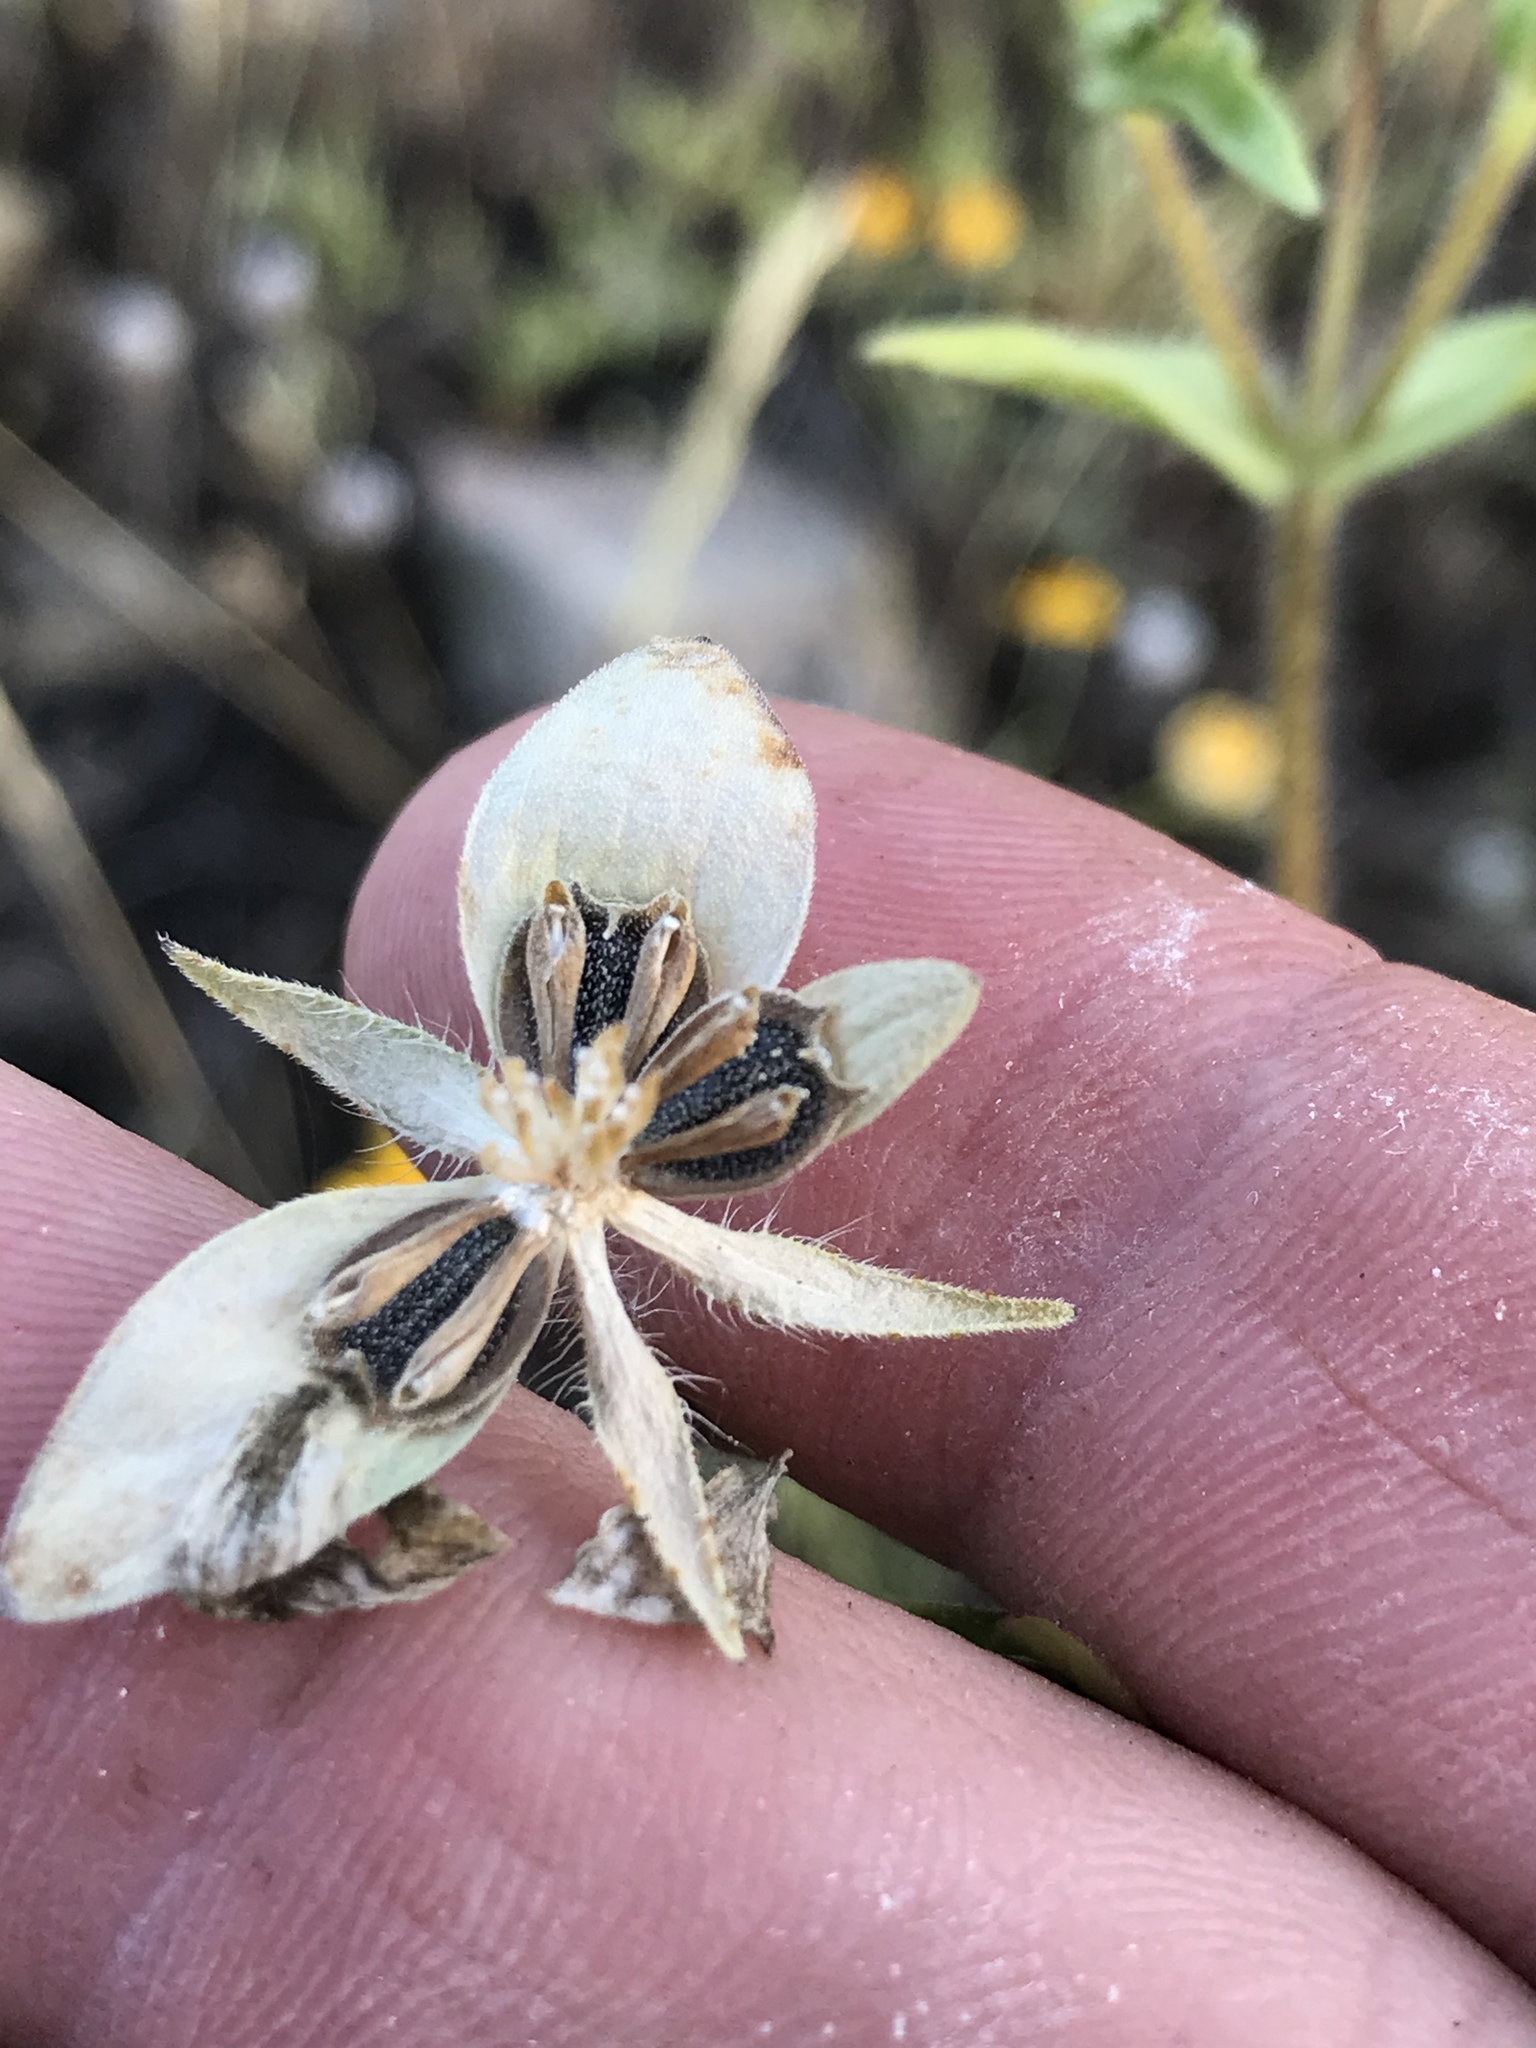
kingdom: Plantae
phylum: Tracheophyta
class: Magnoliopsida
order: Asterales
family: Asteraceae
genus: Lindheimera
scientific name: Lindheimera texana
